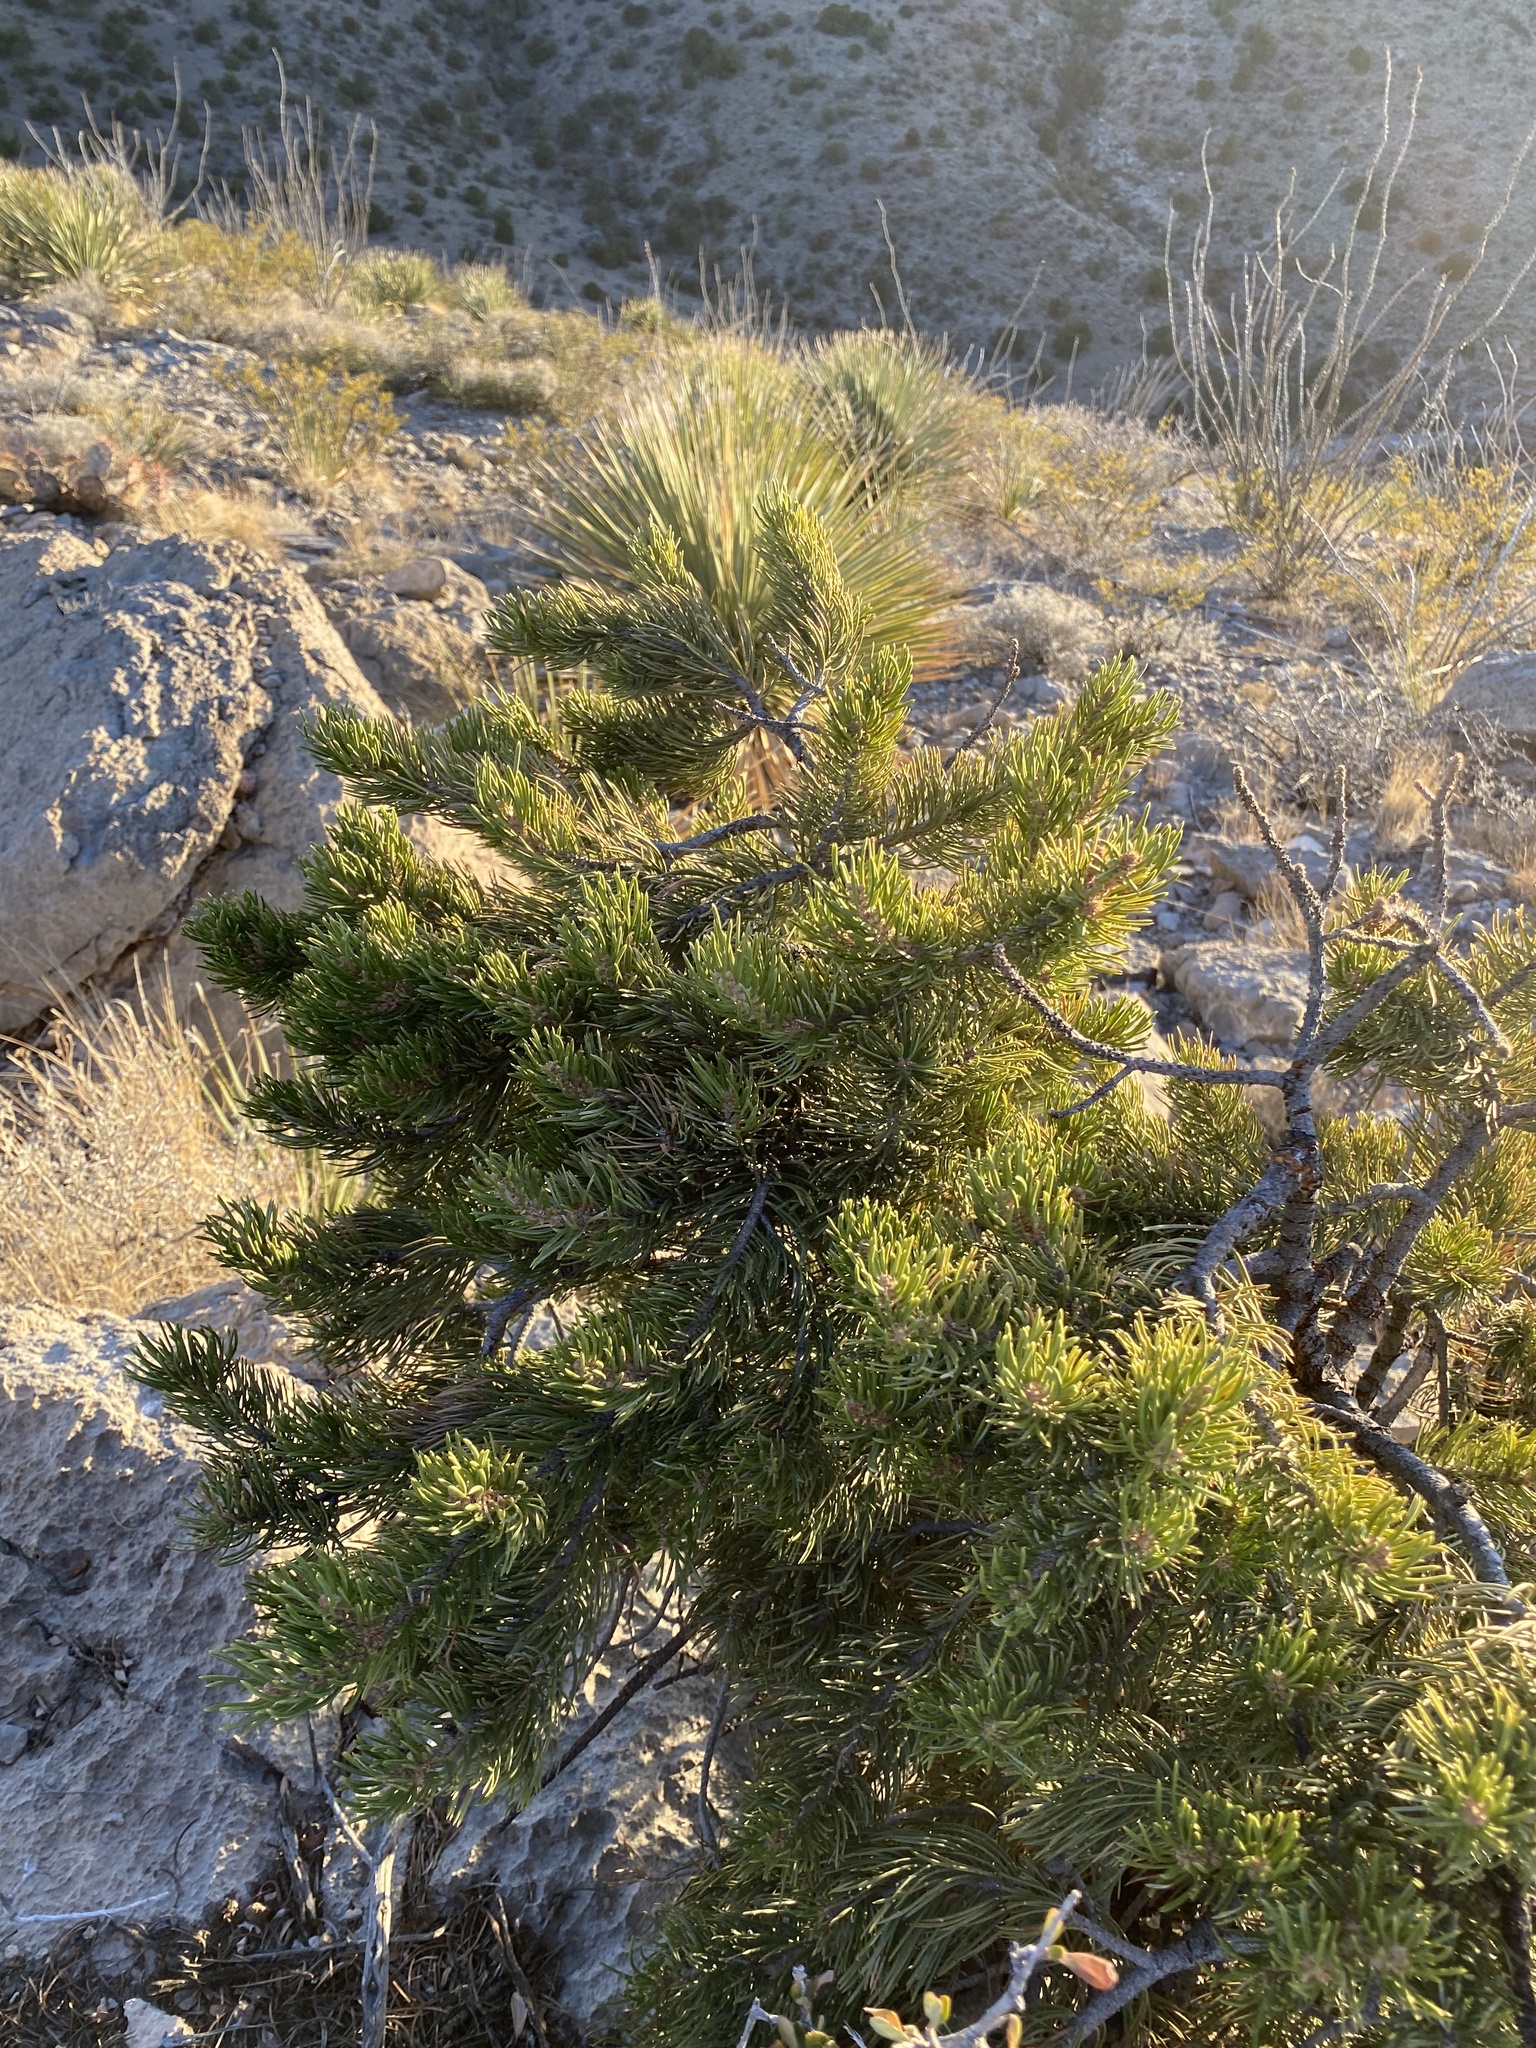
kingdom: Plantae
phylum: Tracheophyta
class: Pinopsida
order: Pinales
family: Pinaceae
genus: Pinus
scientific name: Pinus edulis
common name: Colorado pinyon
